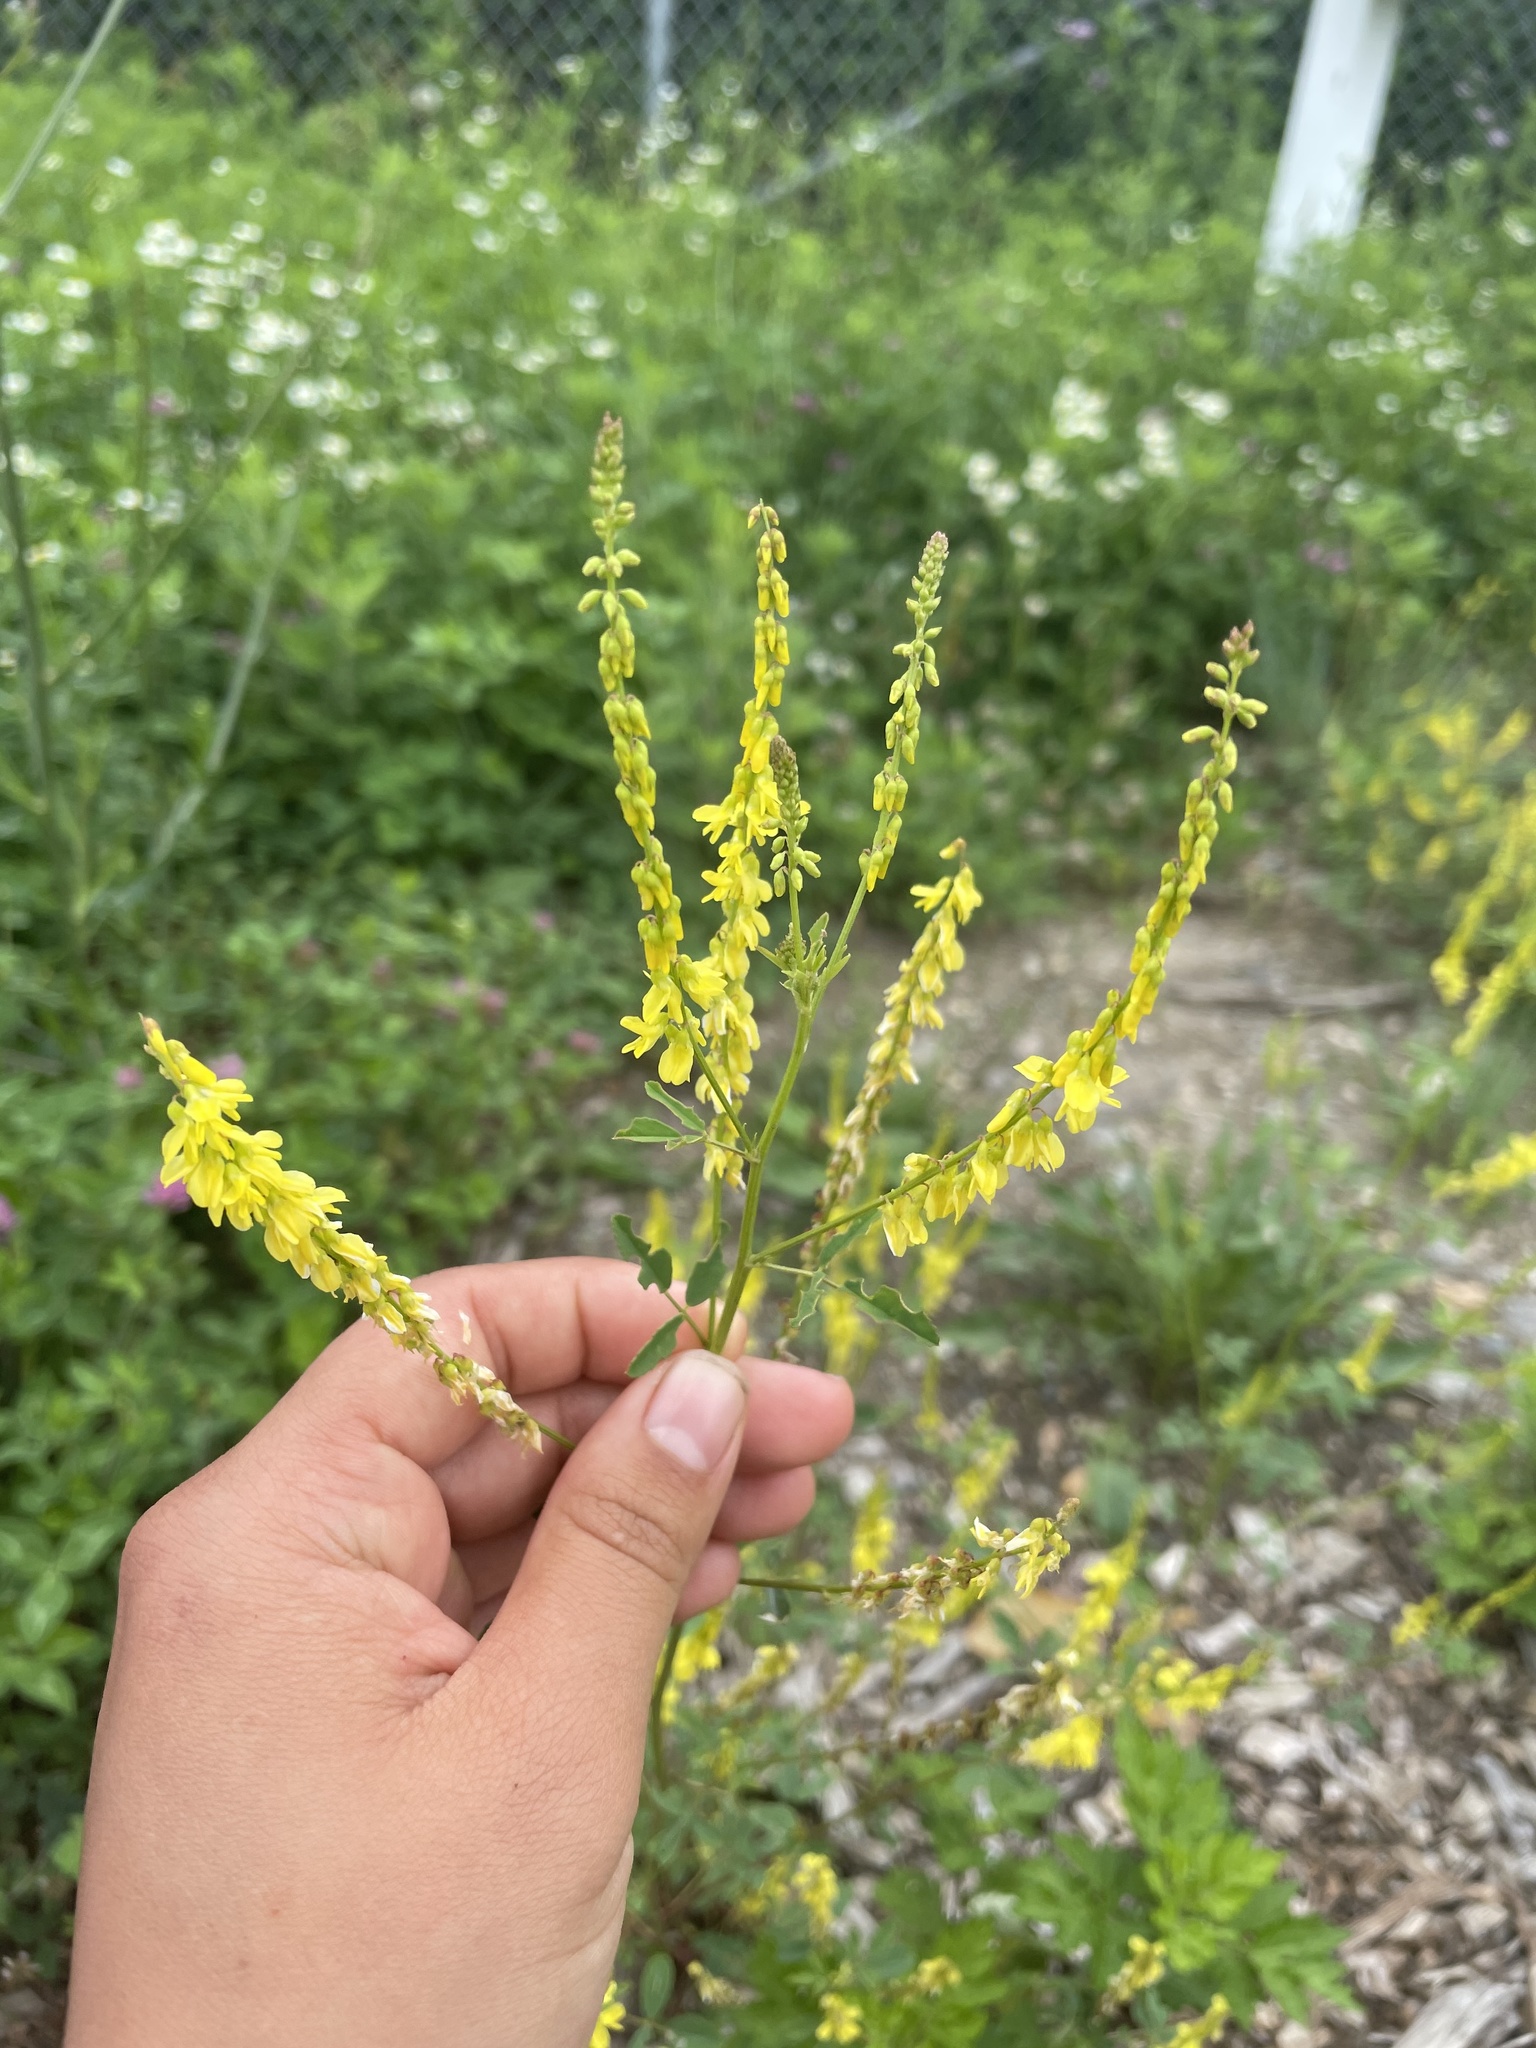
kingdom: Plantae
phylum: Tracheophyta
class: Magnoliopsida
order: Fabales
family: Fabaceae
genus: Melilotus
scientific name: Melilotus officinalis
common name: Sweetclover
